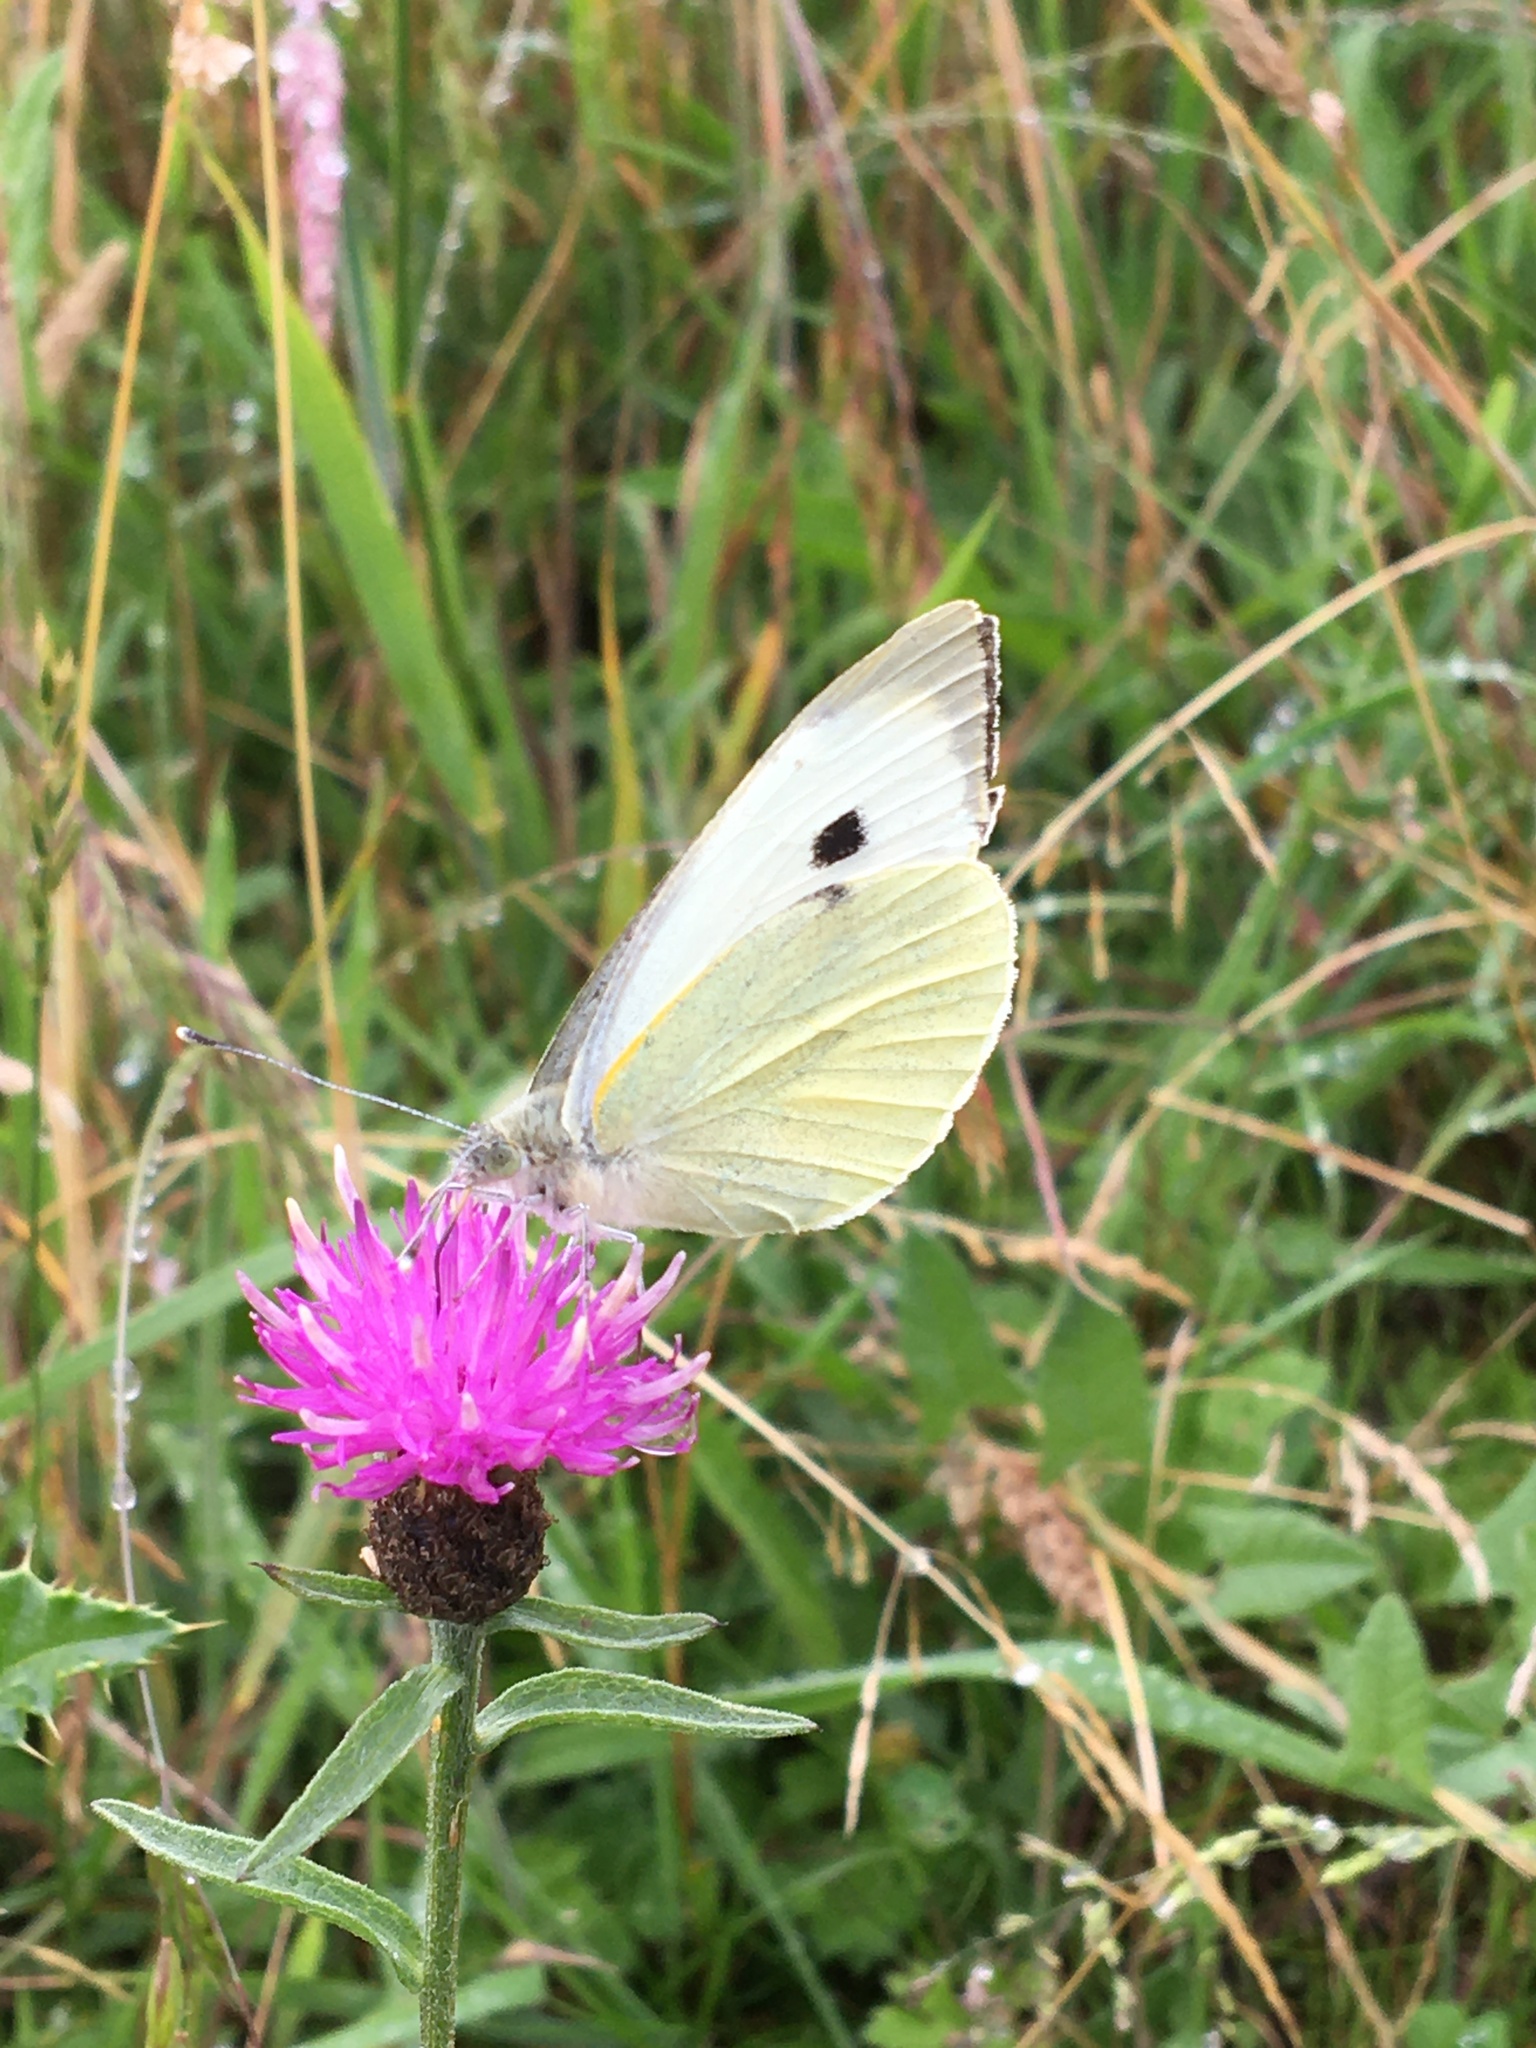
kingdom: Animalia
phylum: Arthropoda
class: Insecta
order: Lepidoptera
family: Pieridae
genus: Pieris
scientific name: Pieris brassicae
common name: Large white
